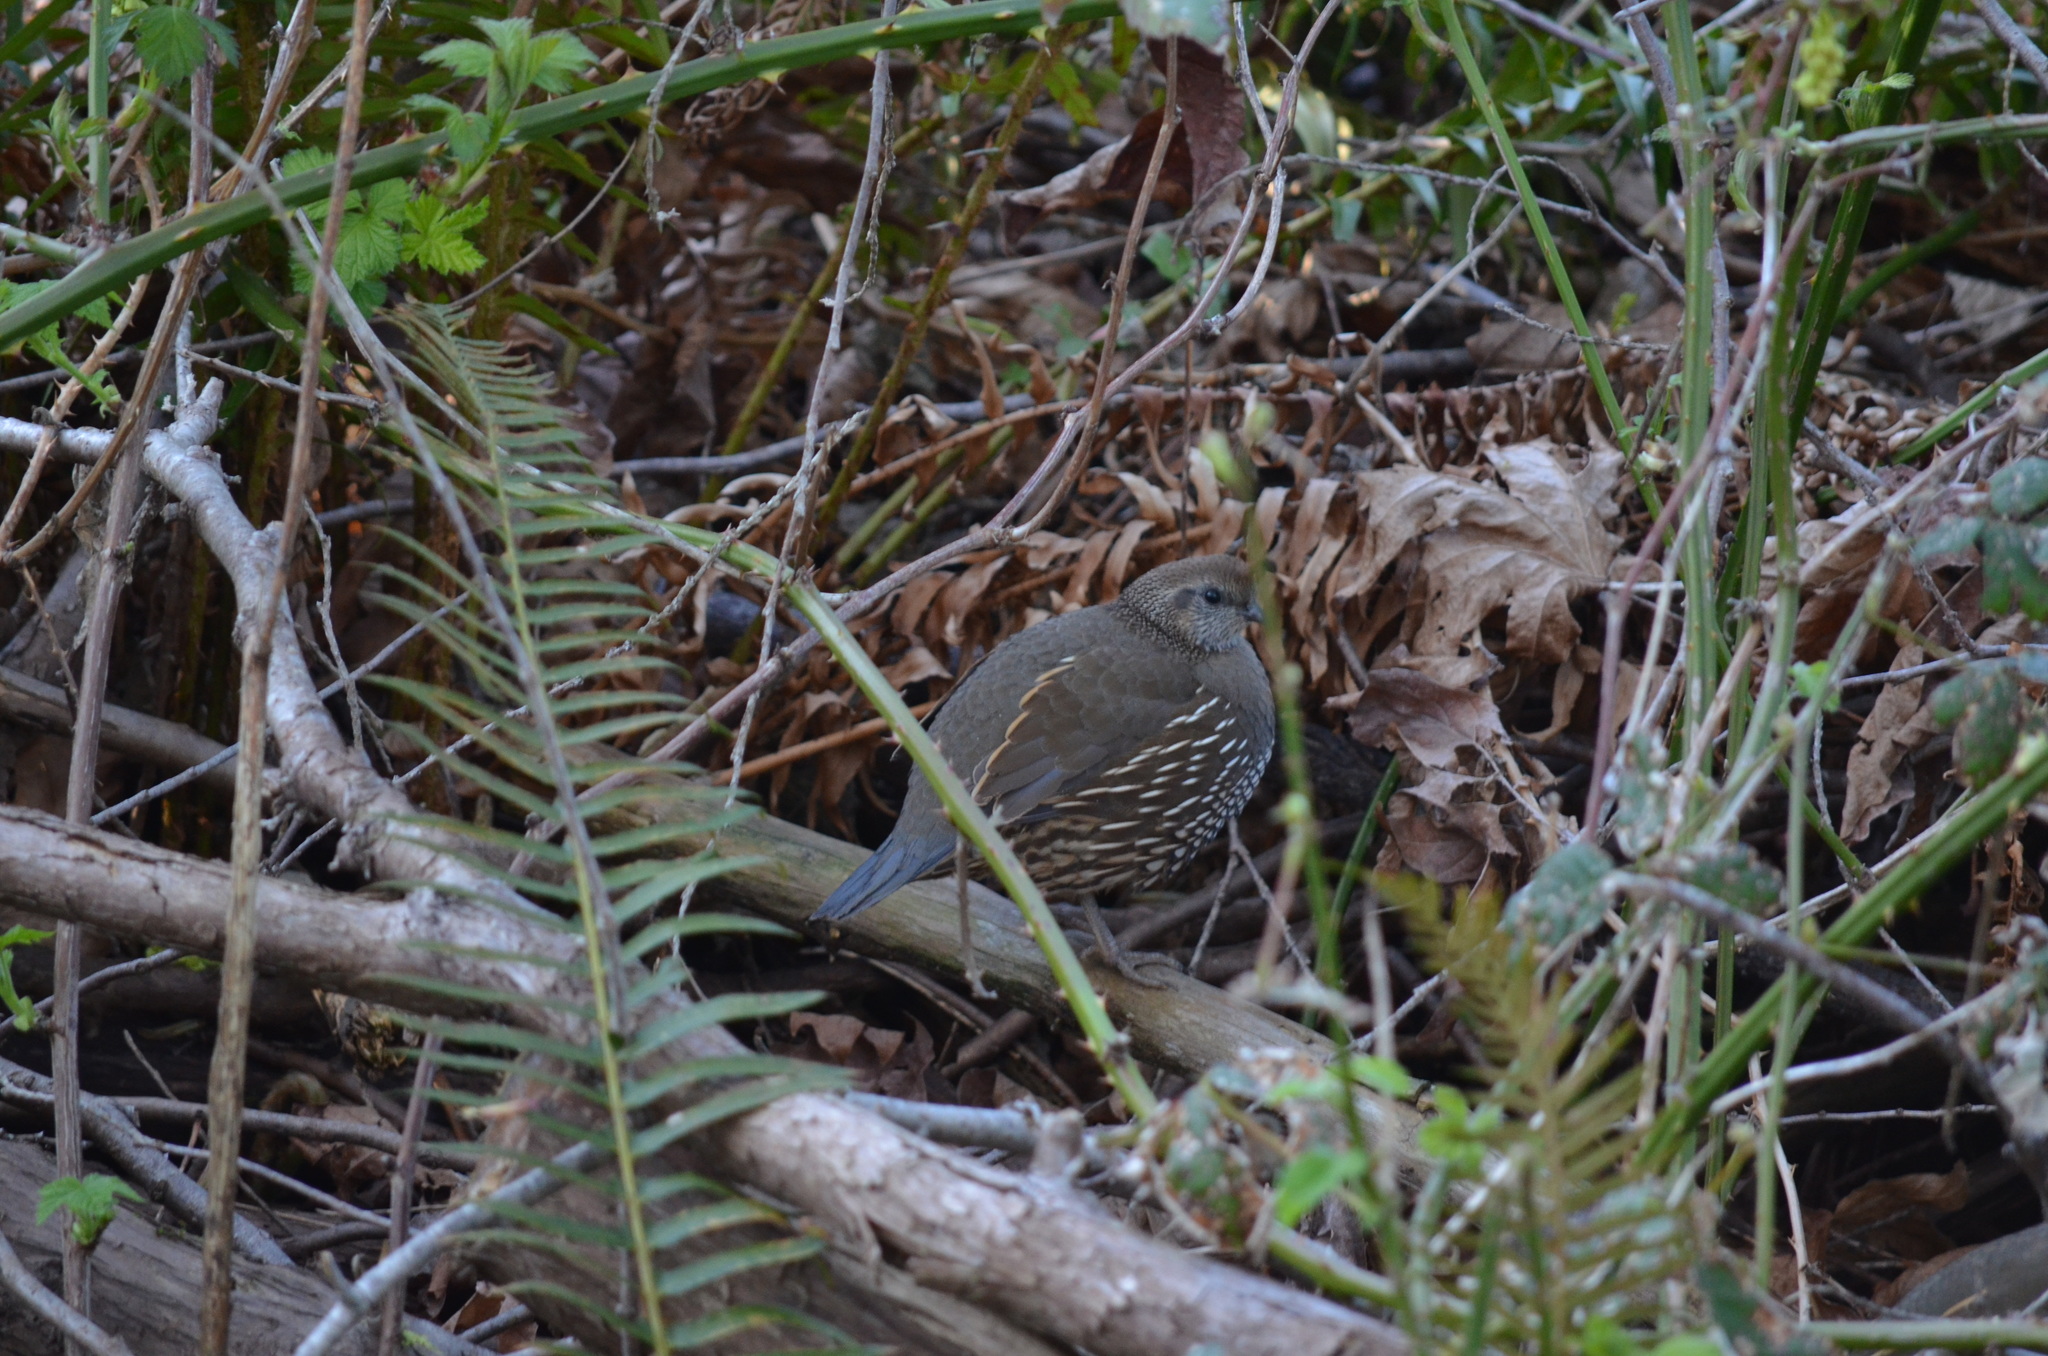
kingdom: Animalia
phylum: Chordata
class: Aves
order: Galliformes
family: Odontophoridae
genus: Callipepla
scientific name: Callipepla californica
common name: California quail
